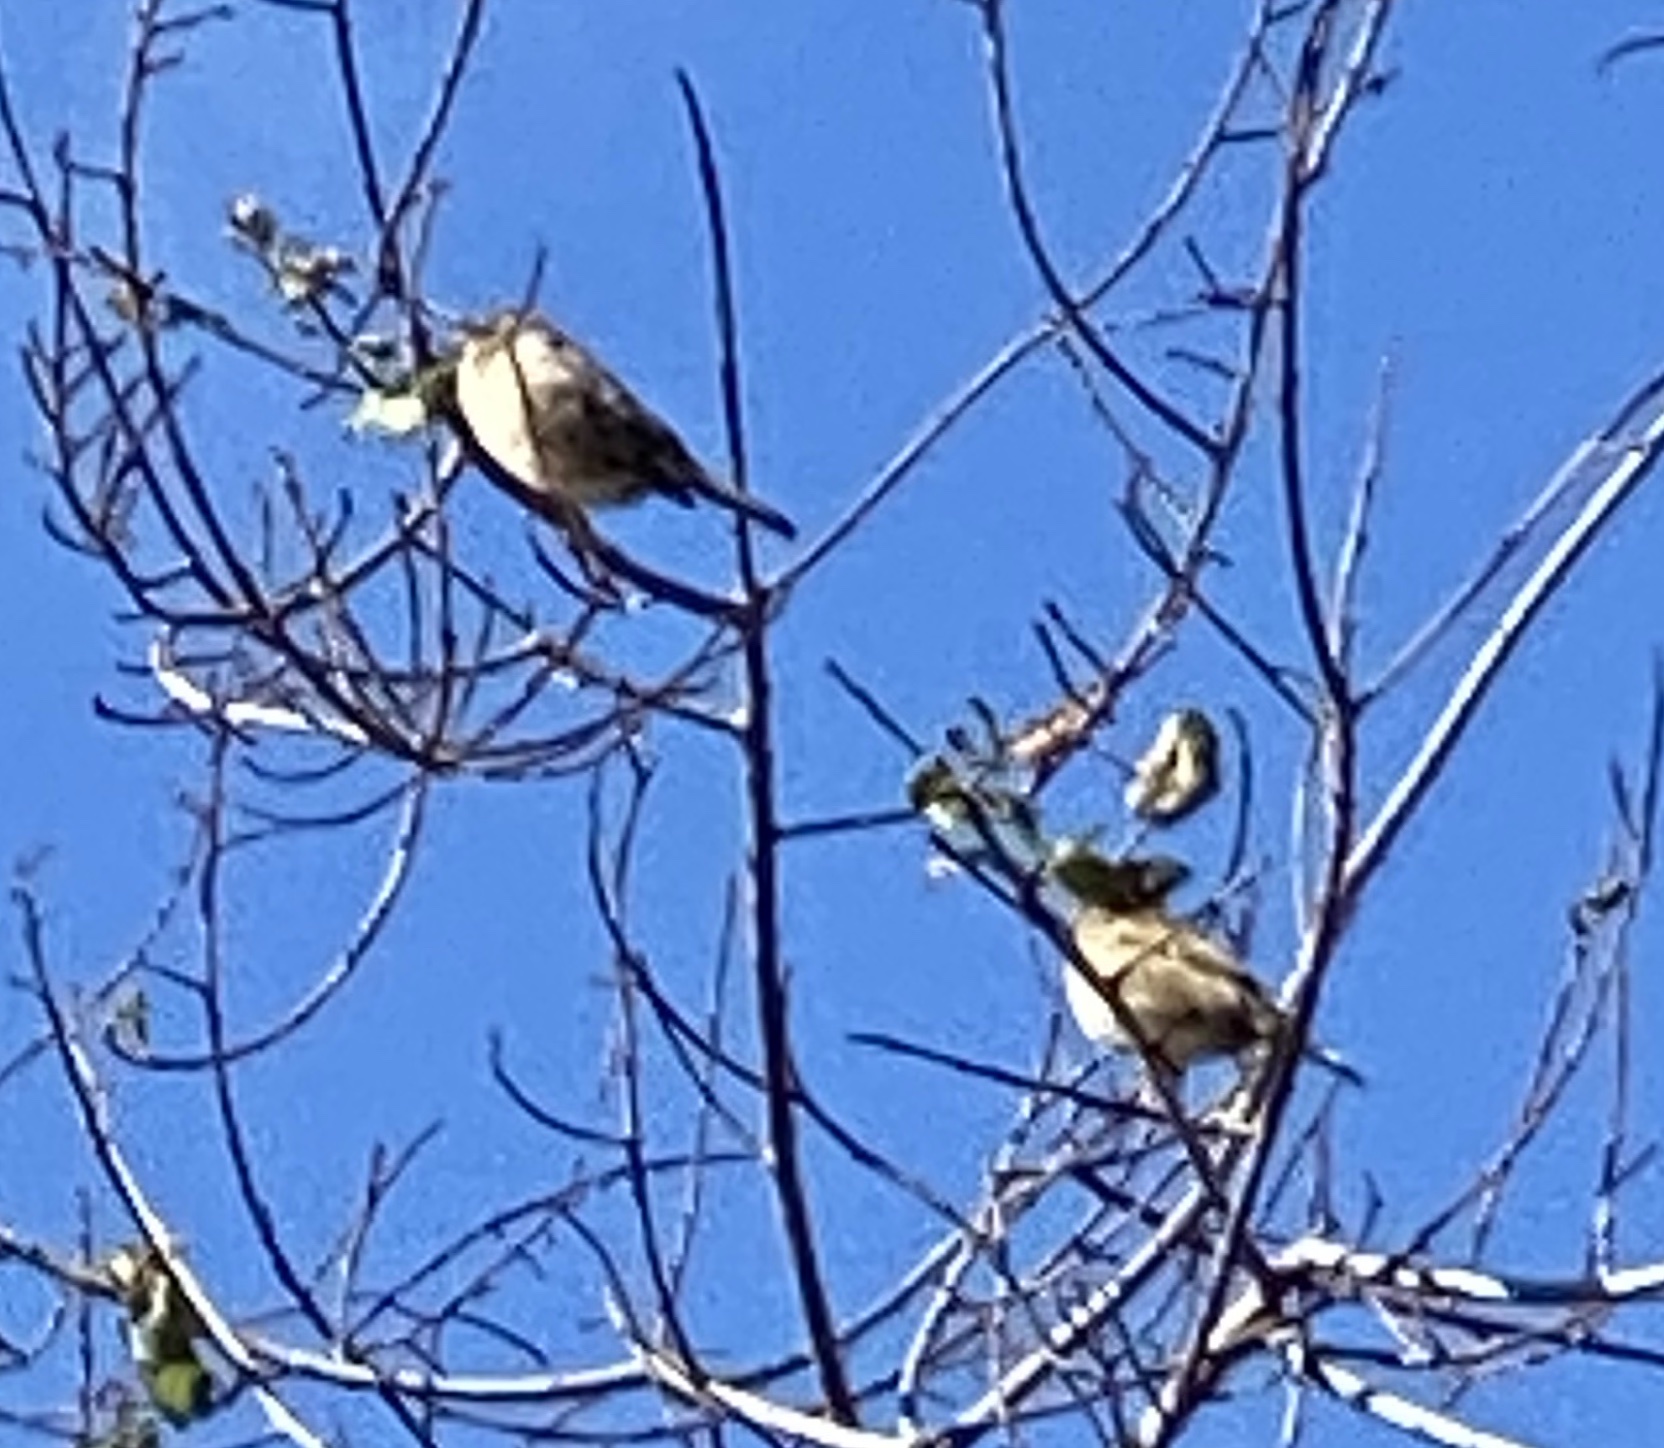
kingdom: Animalia
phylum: Chordata
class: Aves
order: Passeriformes
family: Passeridae
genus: Passer
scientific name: Passer domesticus
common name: House sparrow
